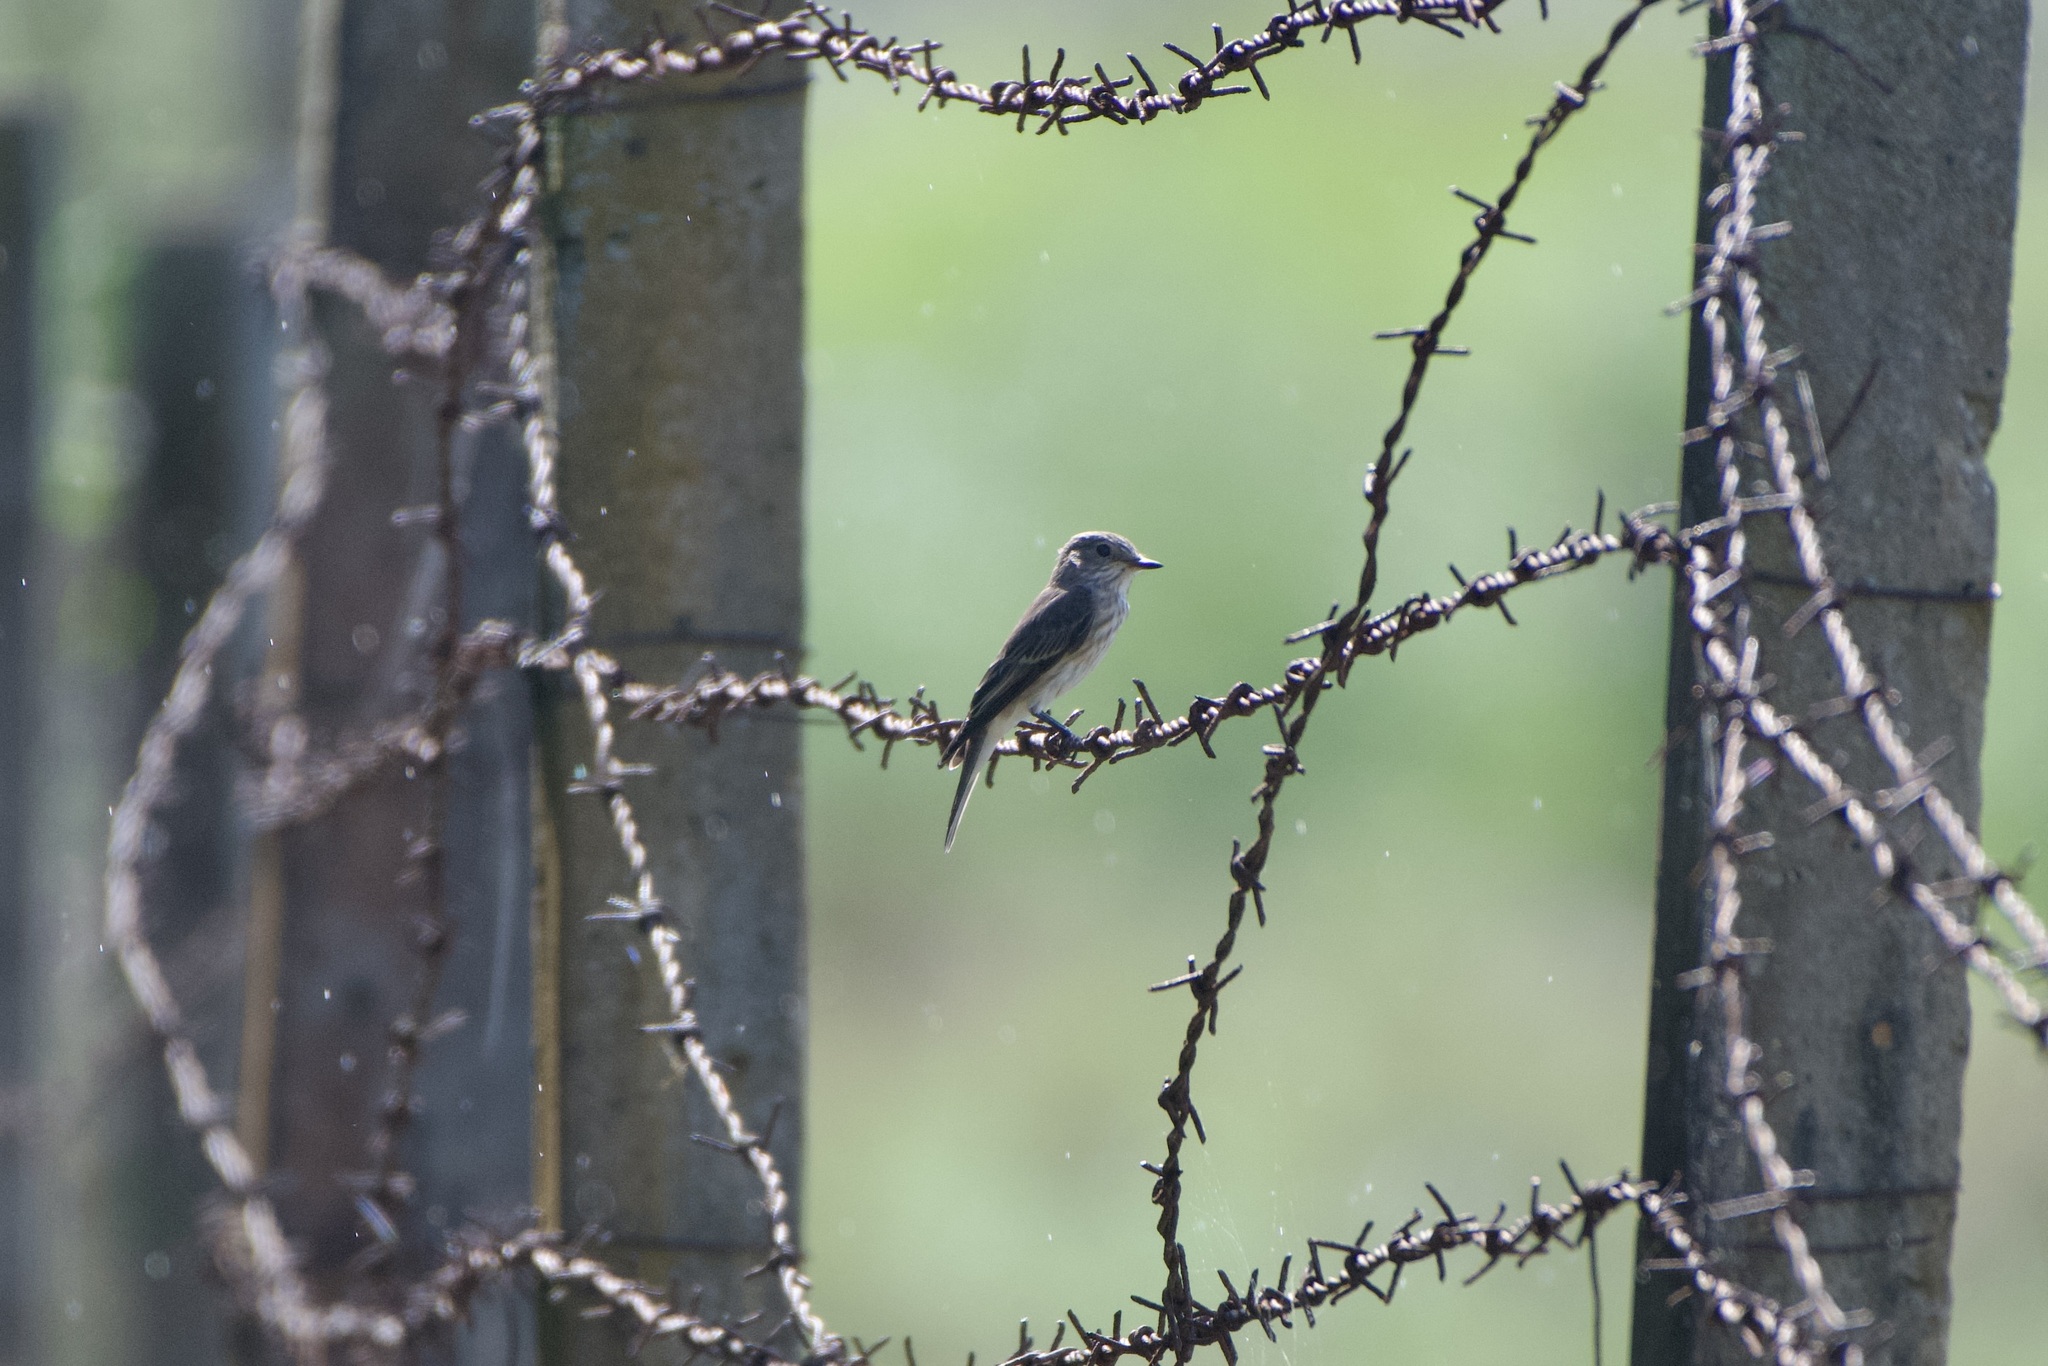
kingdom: Animalia
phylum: Chordata
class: Aves
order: Passeriformes
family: Muscicapidae
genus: Muscicapa
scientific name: Muscicapa striata
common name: Spotted flycatcher
